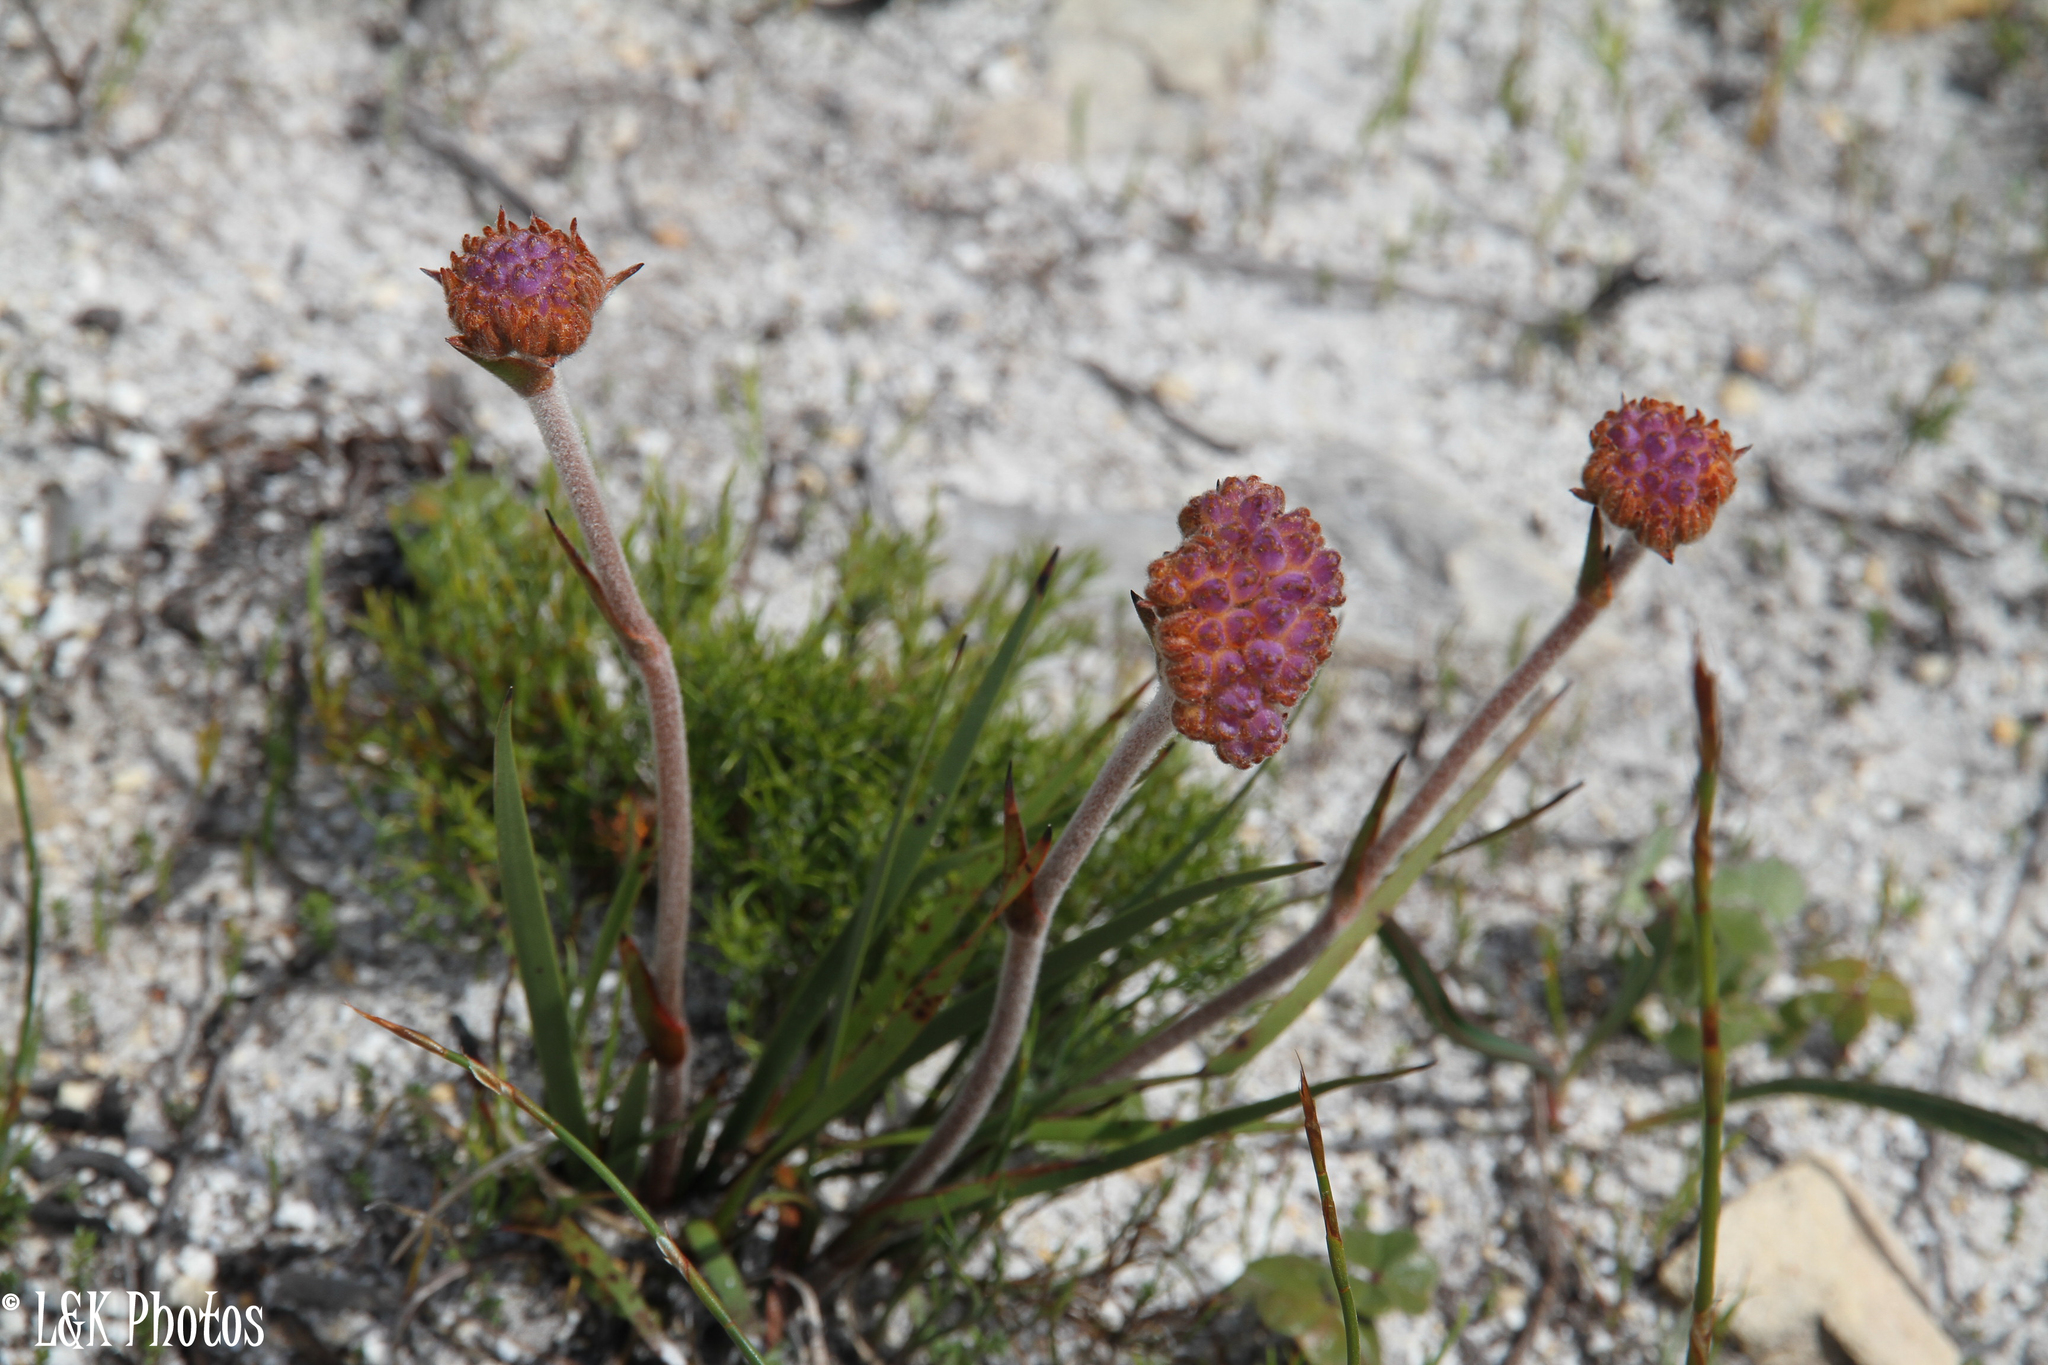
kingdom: Plantae
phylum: Tracheophyta
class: Liliopsida
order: Commelinales
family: Haemodoraceae
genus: Dilatris
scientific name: Dilatris pillansii
